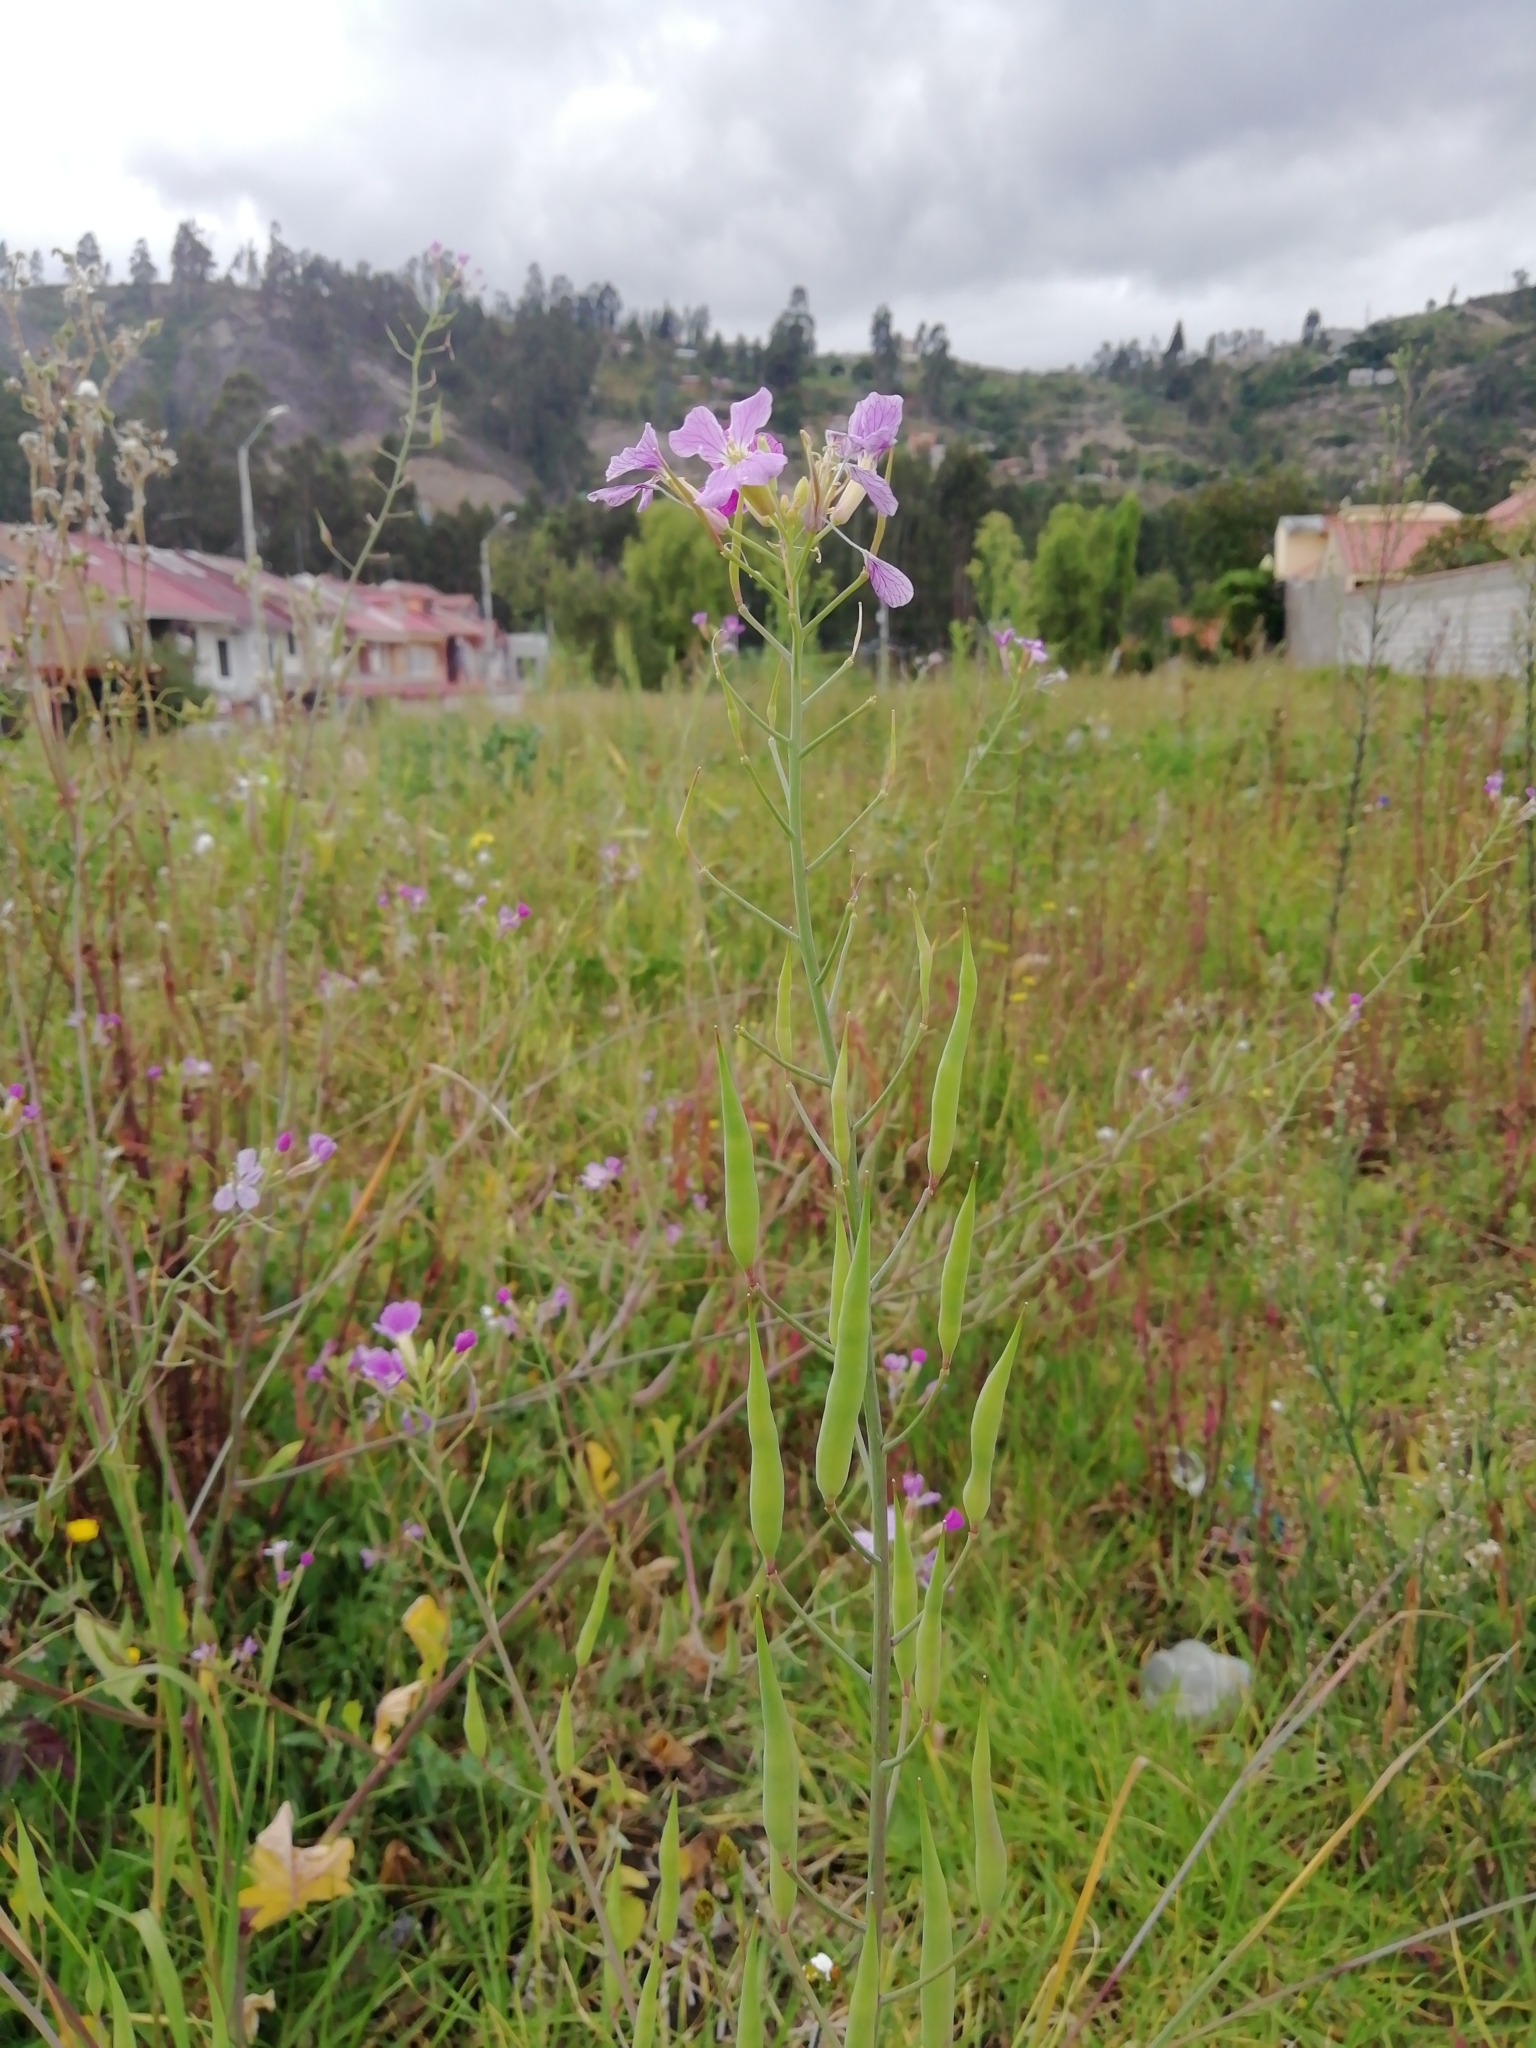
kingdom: Plantae
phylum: Tracheophyta
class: Magnoliopsida
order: Brassicales
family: Brassicaceae
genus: Raphanus
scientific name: Raphanus sativus
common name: Cultivated radish
